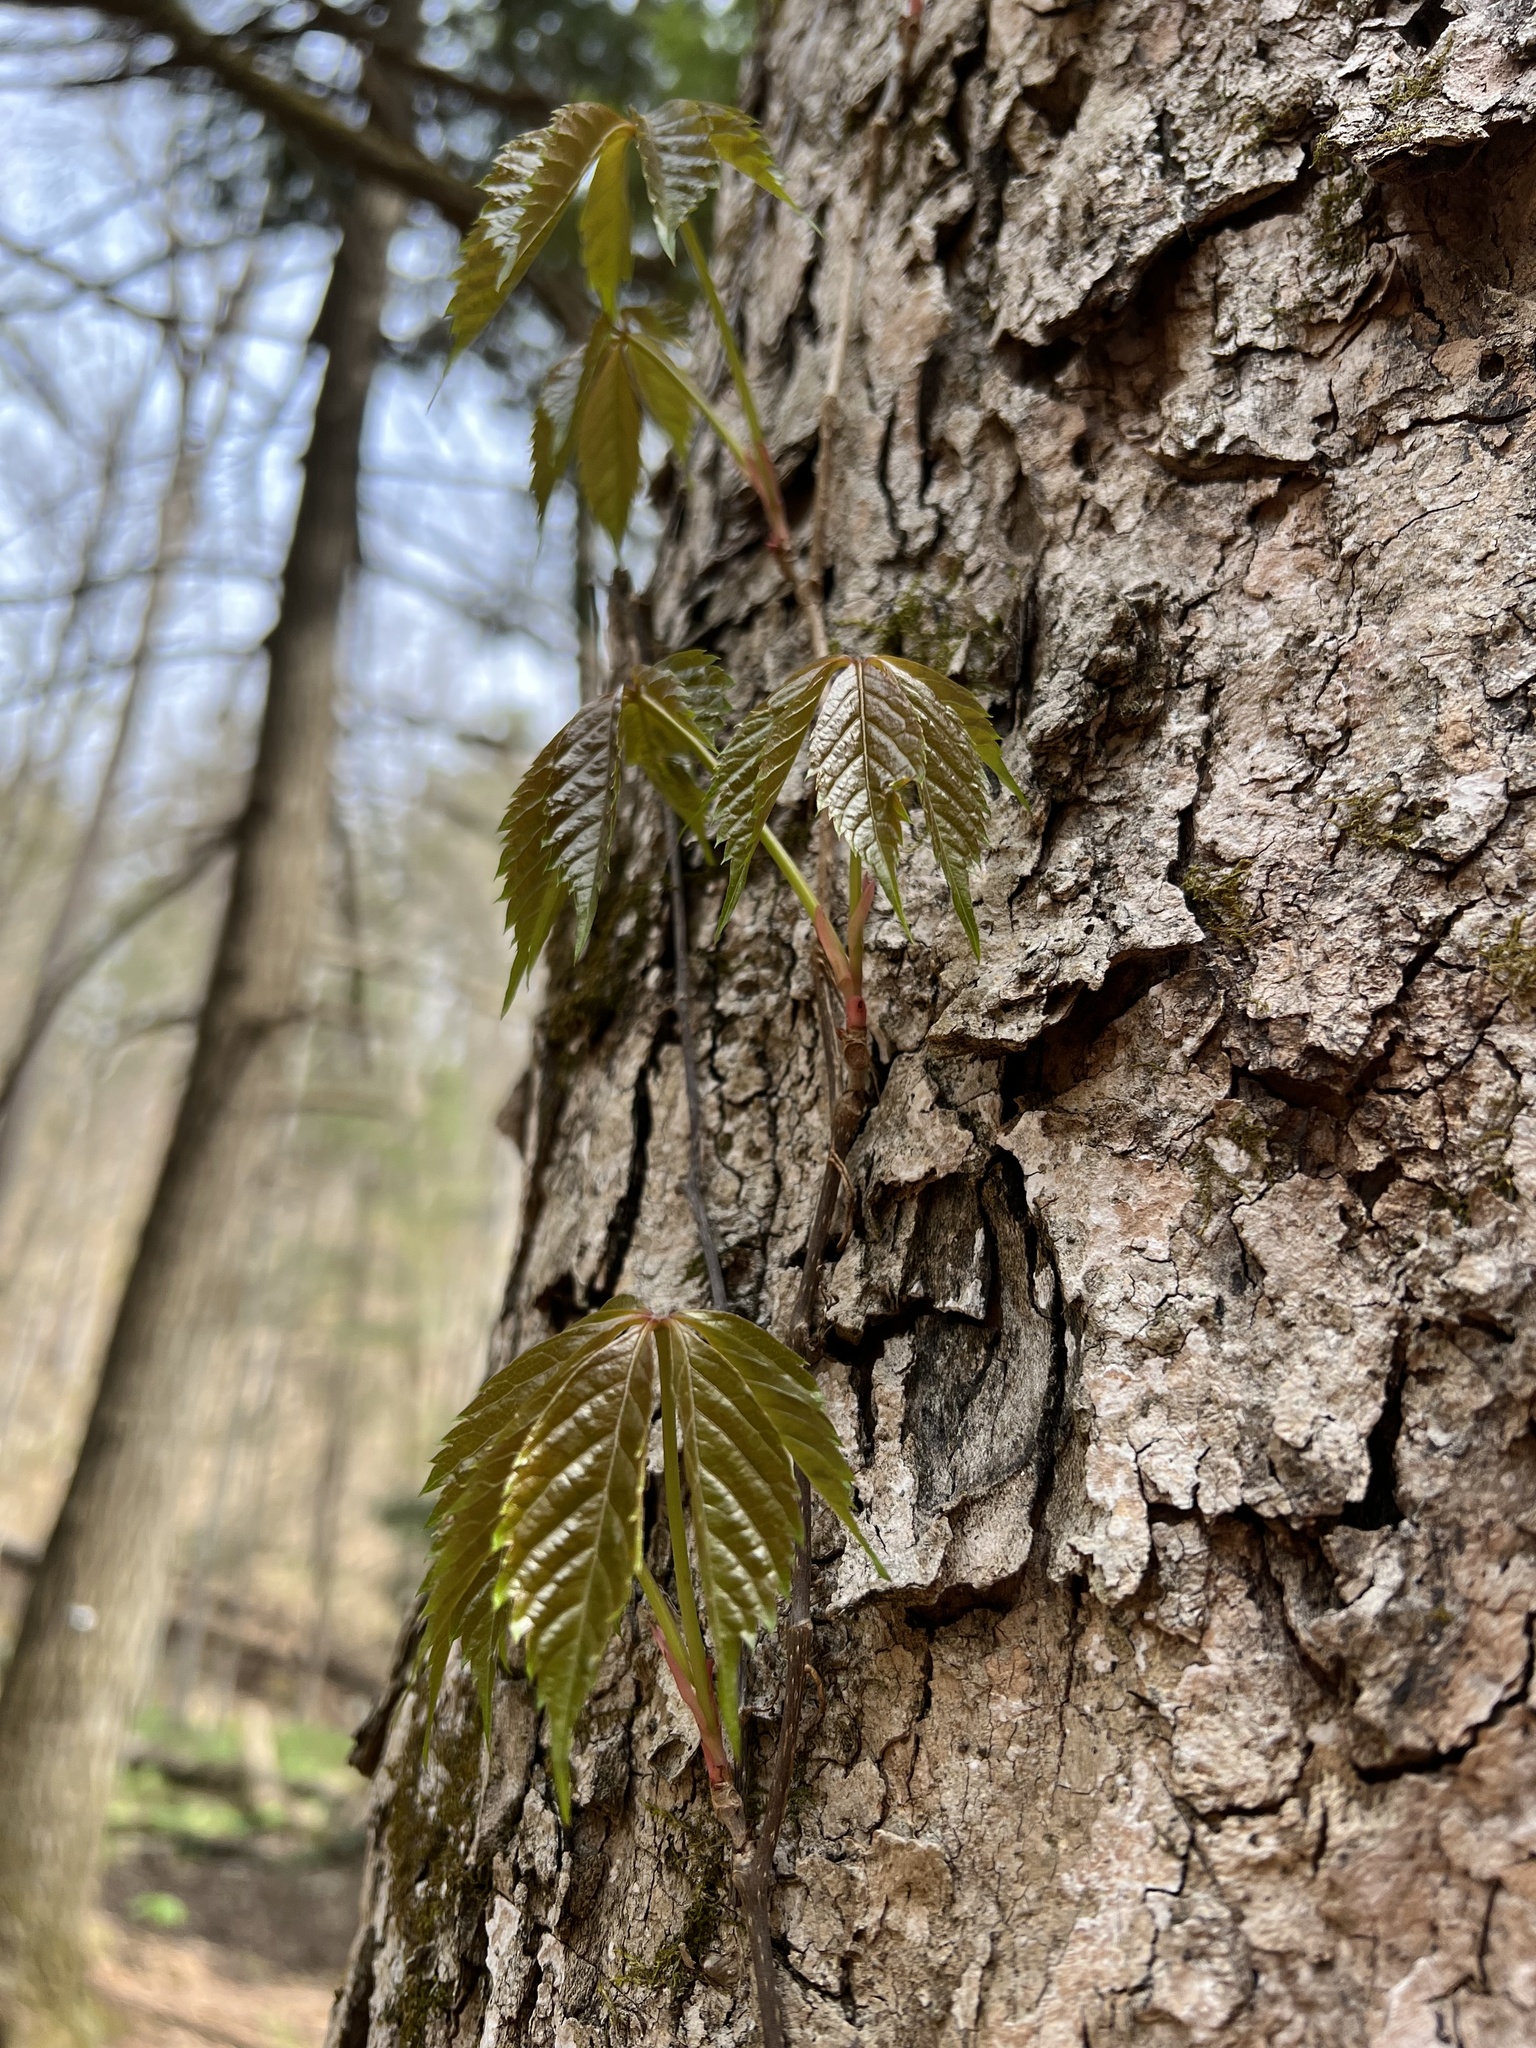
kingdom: Plantae
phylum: Tracheophyta
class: Magnoliopsida
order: Vitales
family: Vitaceae
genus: Parthenocissus
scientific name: Parthenocissus quinquefolia
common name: Virginia-creeper
